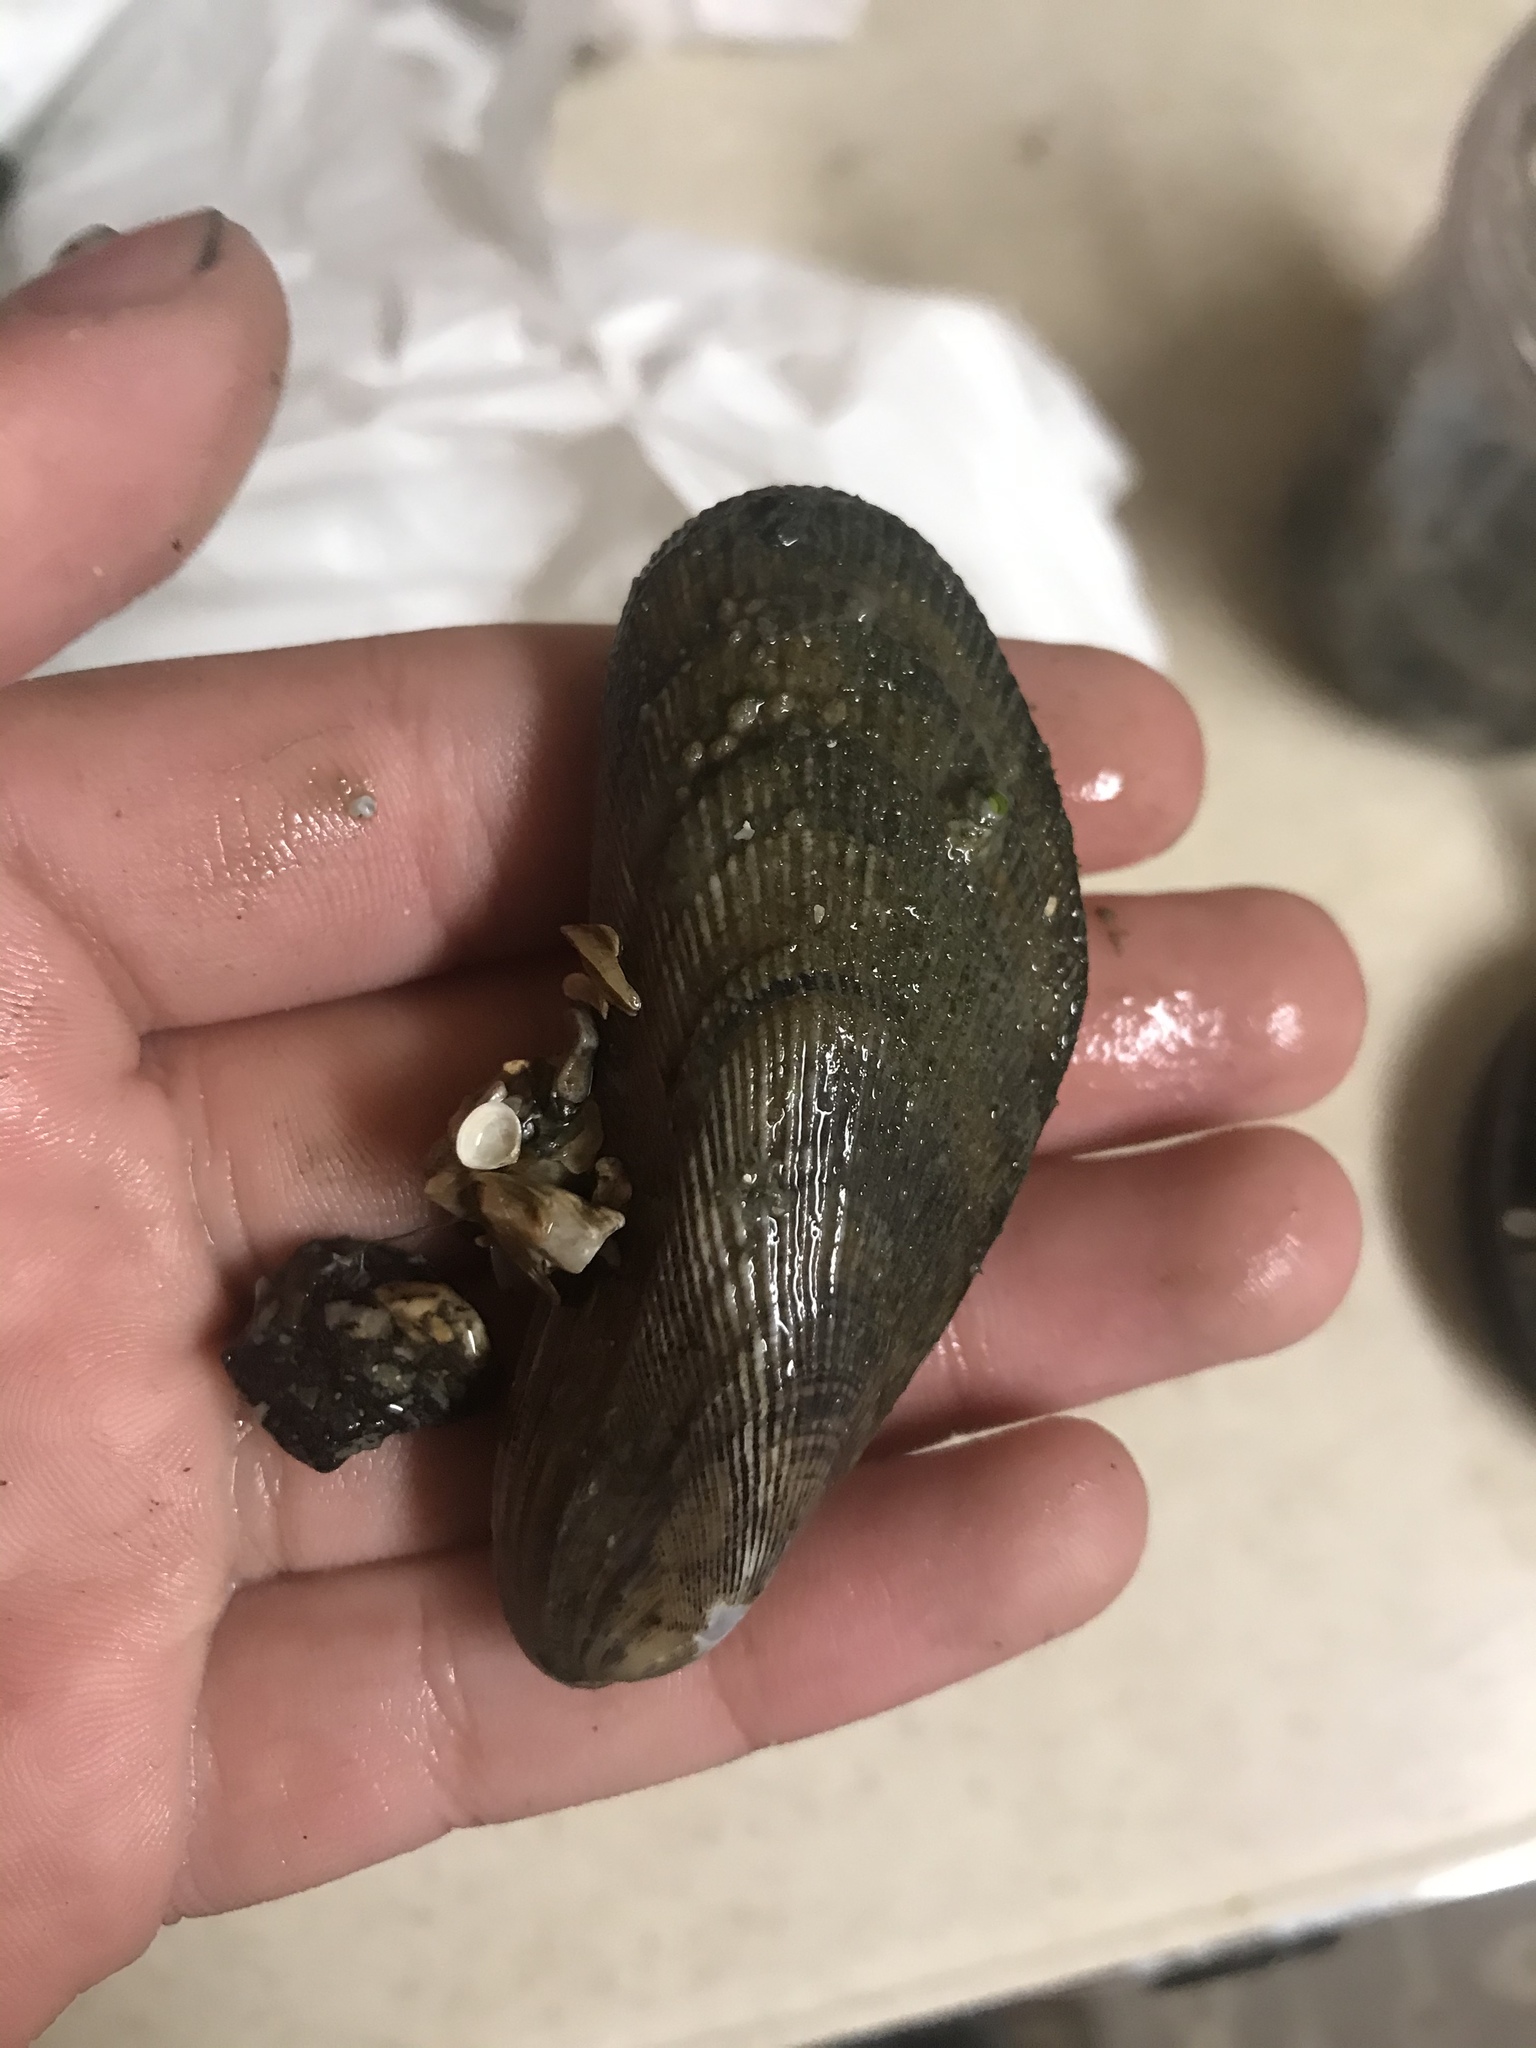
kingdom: Animalia
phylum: Mollusca
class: Bivalvia
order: Mytilida
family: Mytilidae
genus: Geukensia
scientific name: Geukensia demissa
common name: Ribbed mussel
